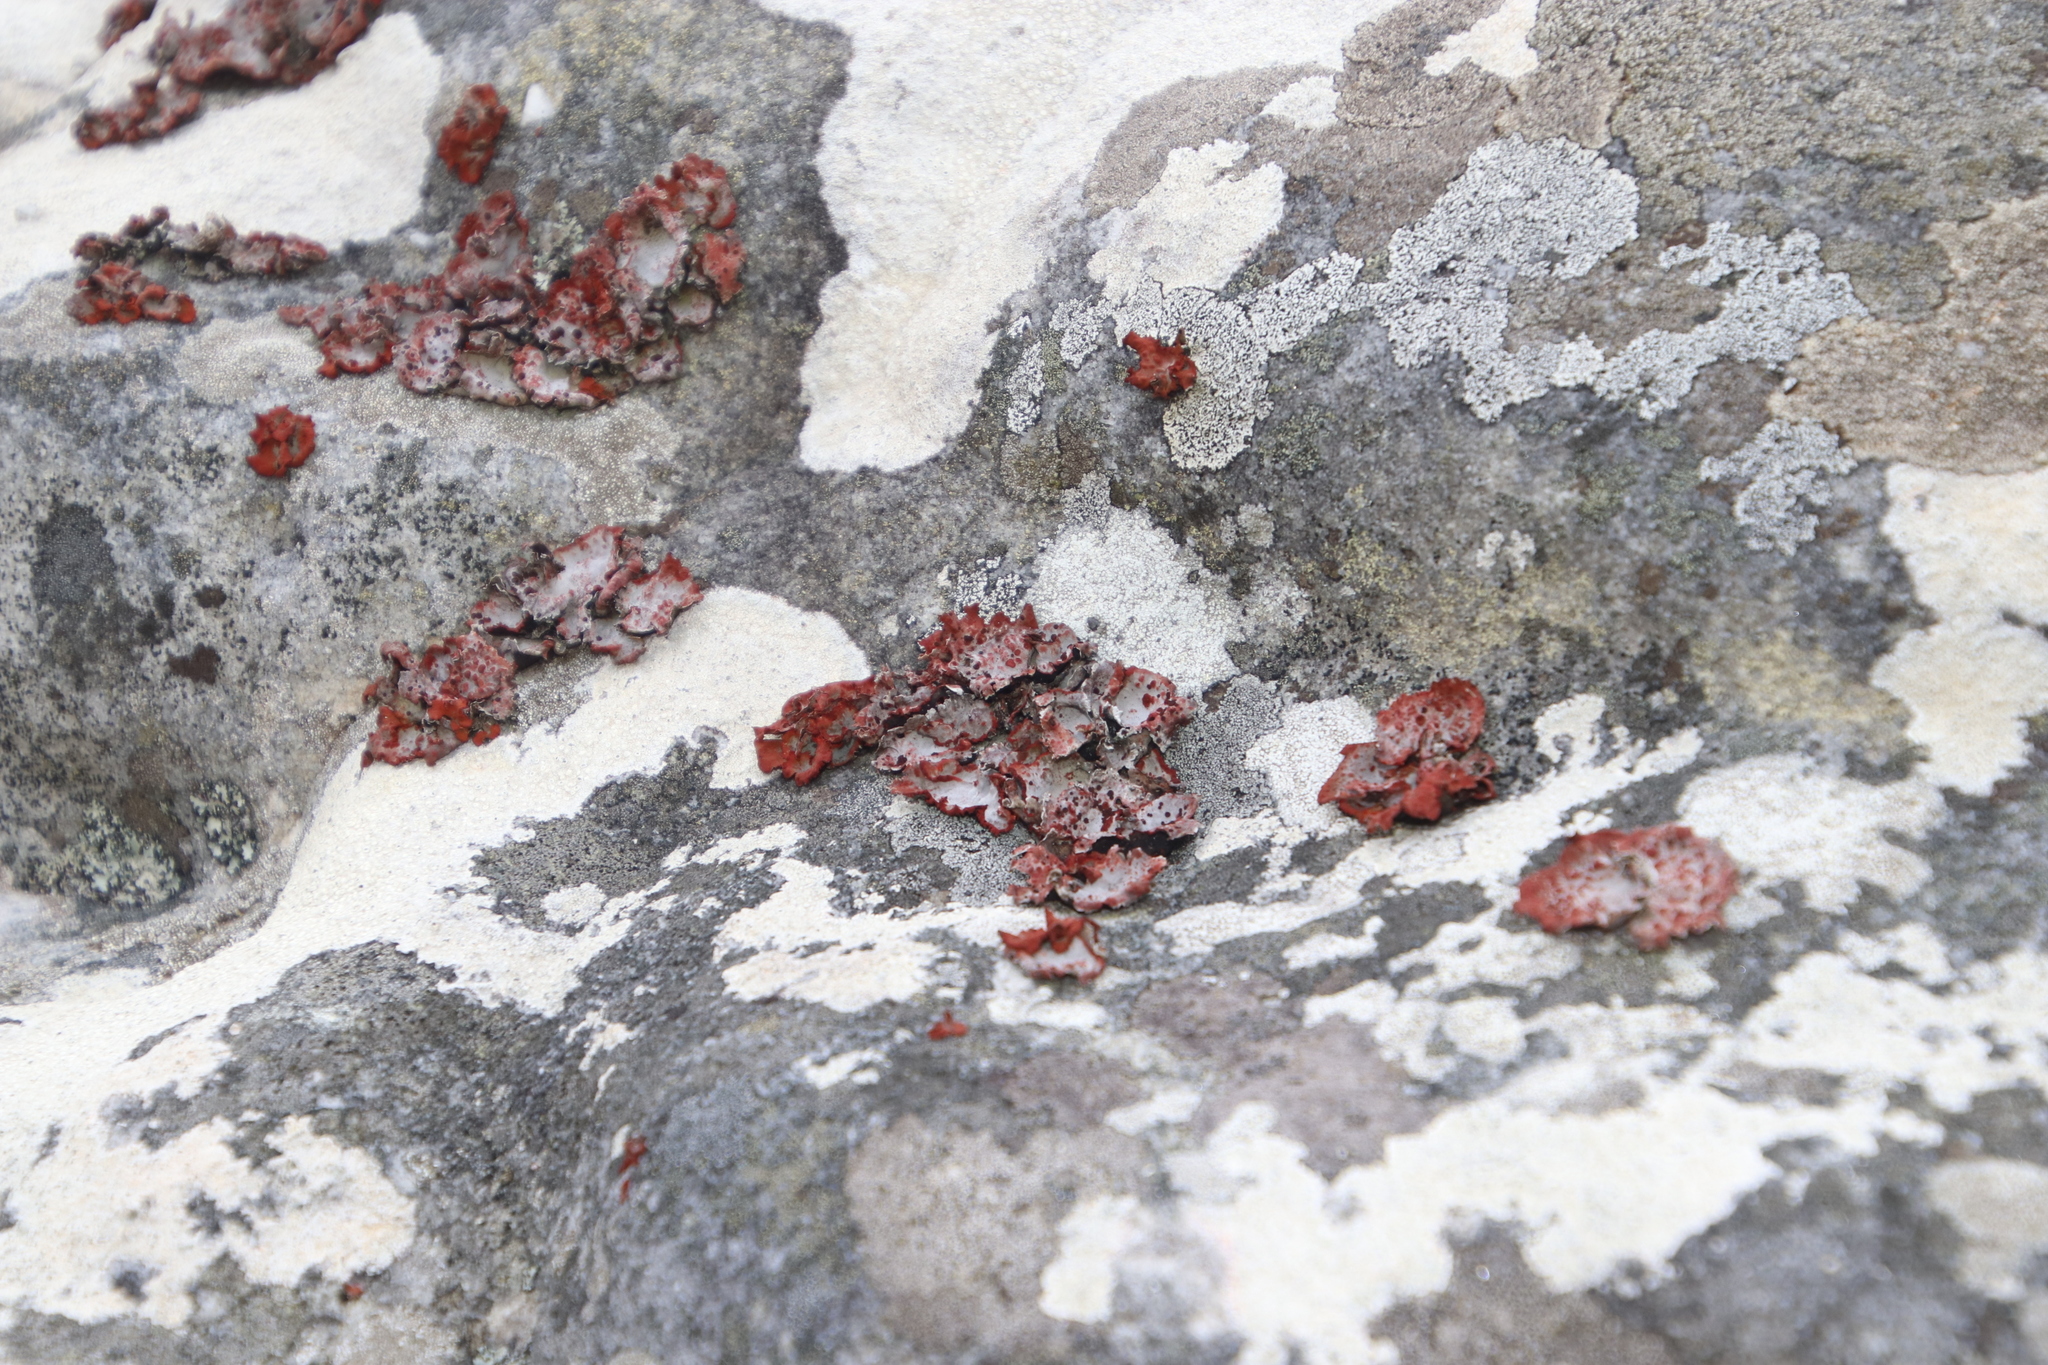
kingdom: Fungi
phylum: Ascomycota
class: Lecanoromycetes
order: Umbilicariales
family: Umbilicariaceae
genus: Lasallia
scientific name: Lasallia rubiginosa
